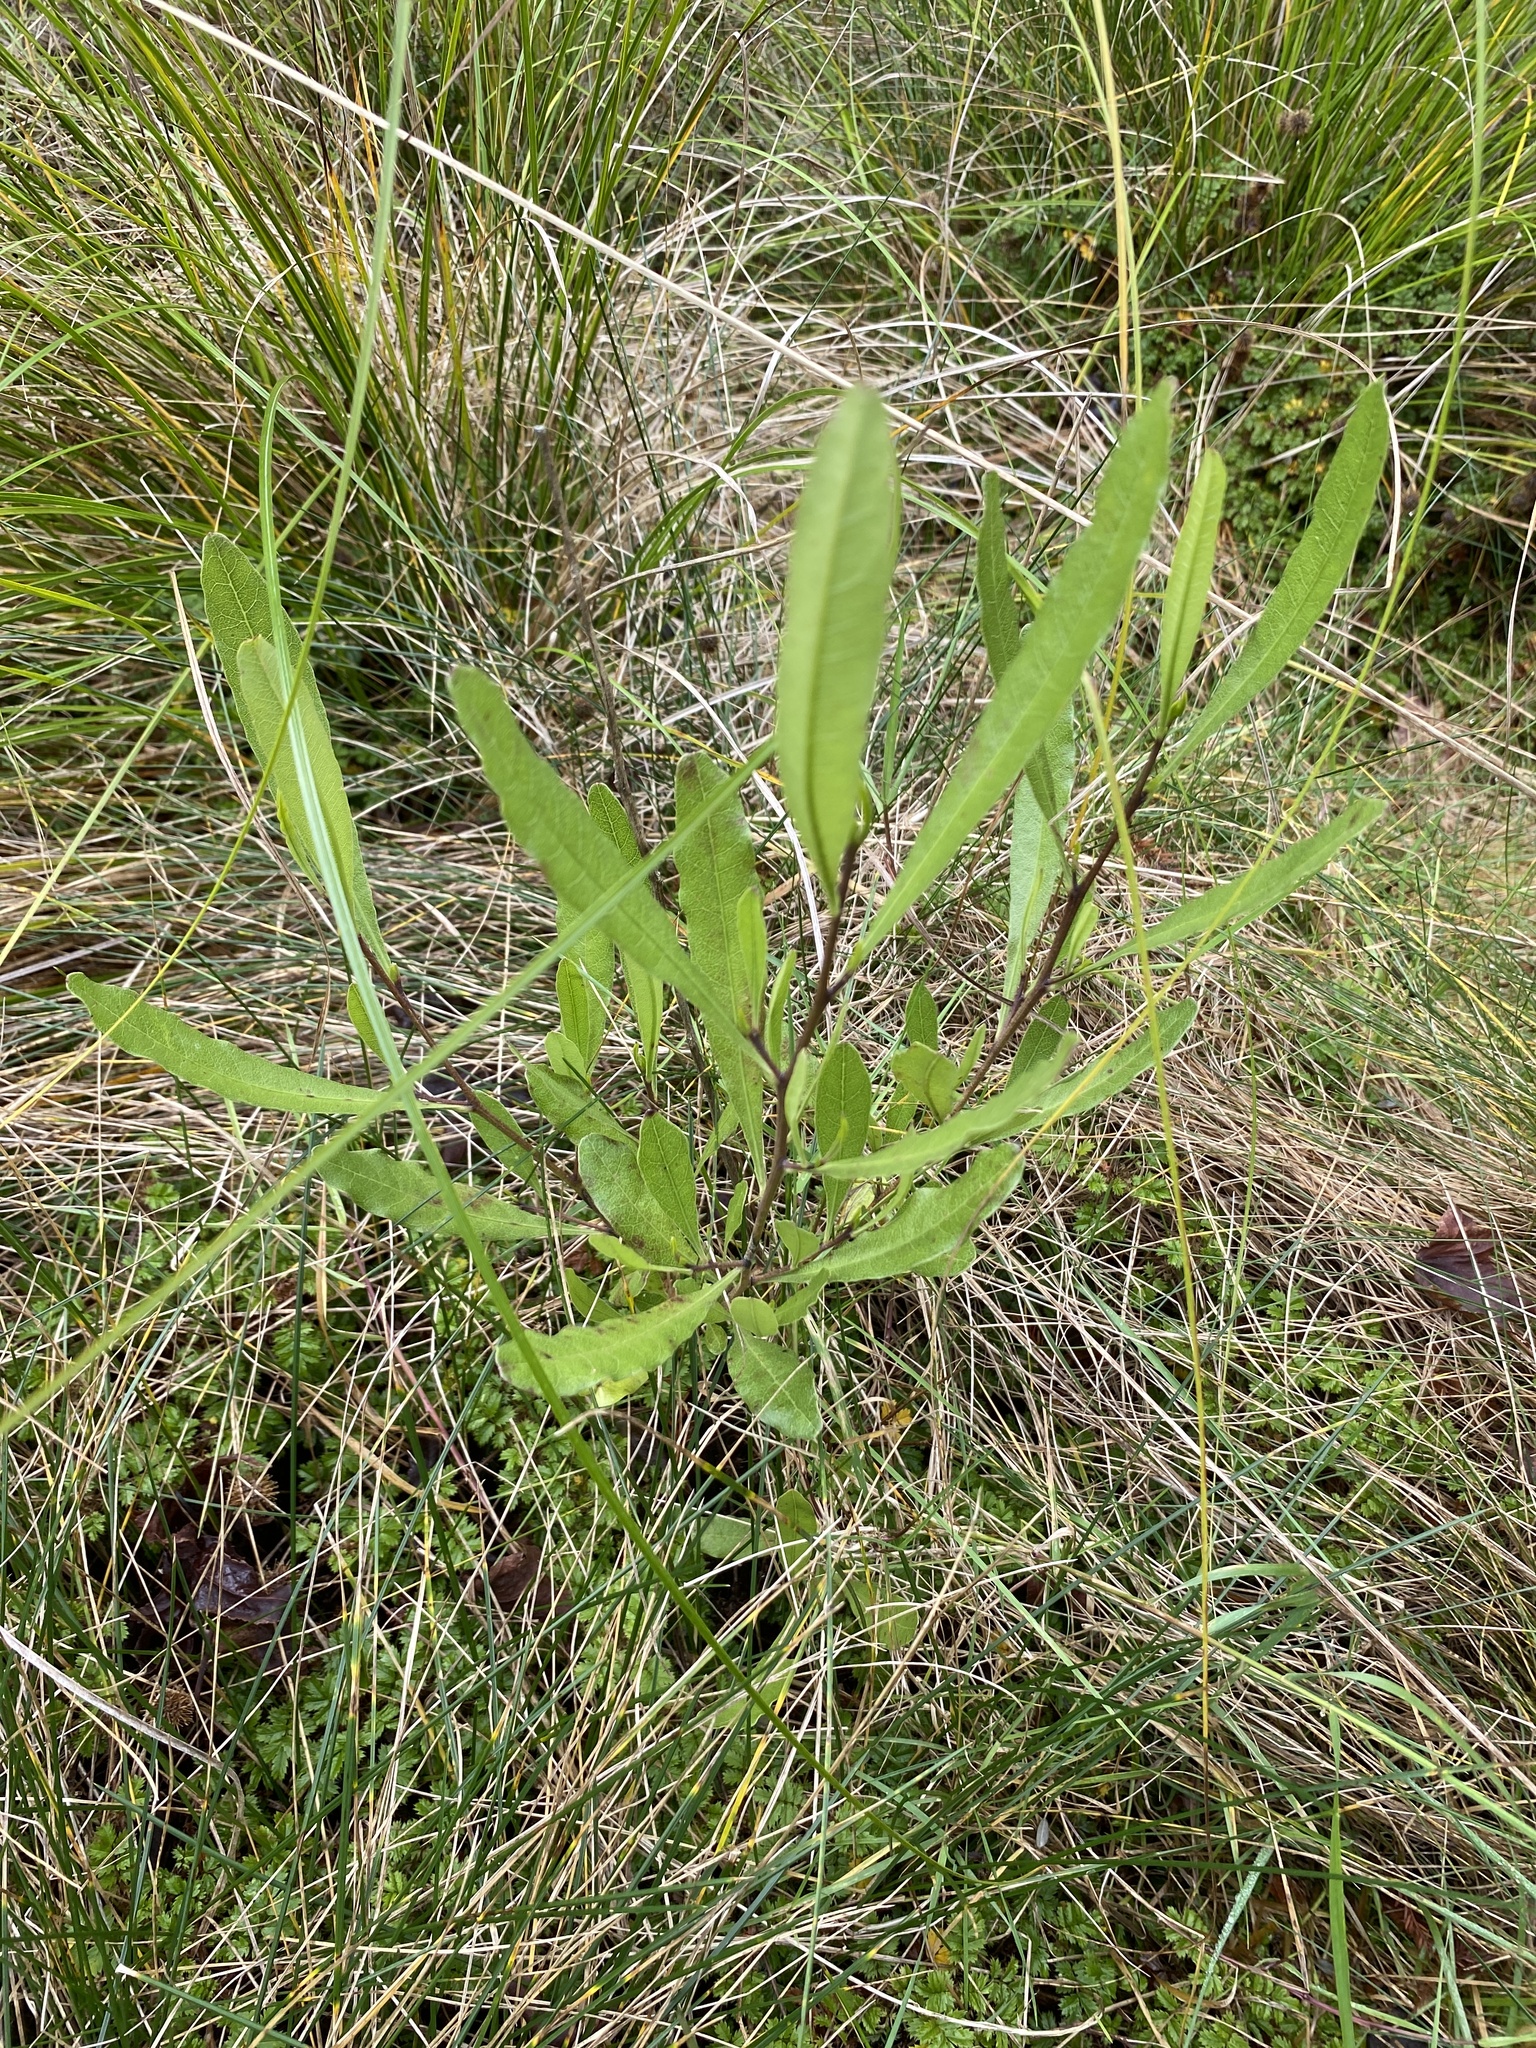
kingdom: Plantae
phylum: Tracheophyta
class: Magnoliopsida
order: Sapindales
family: Sapindaceae
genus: Dodonaea
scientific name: Dodonaea viscosa
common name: Hopbush
